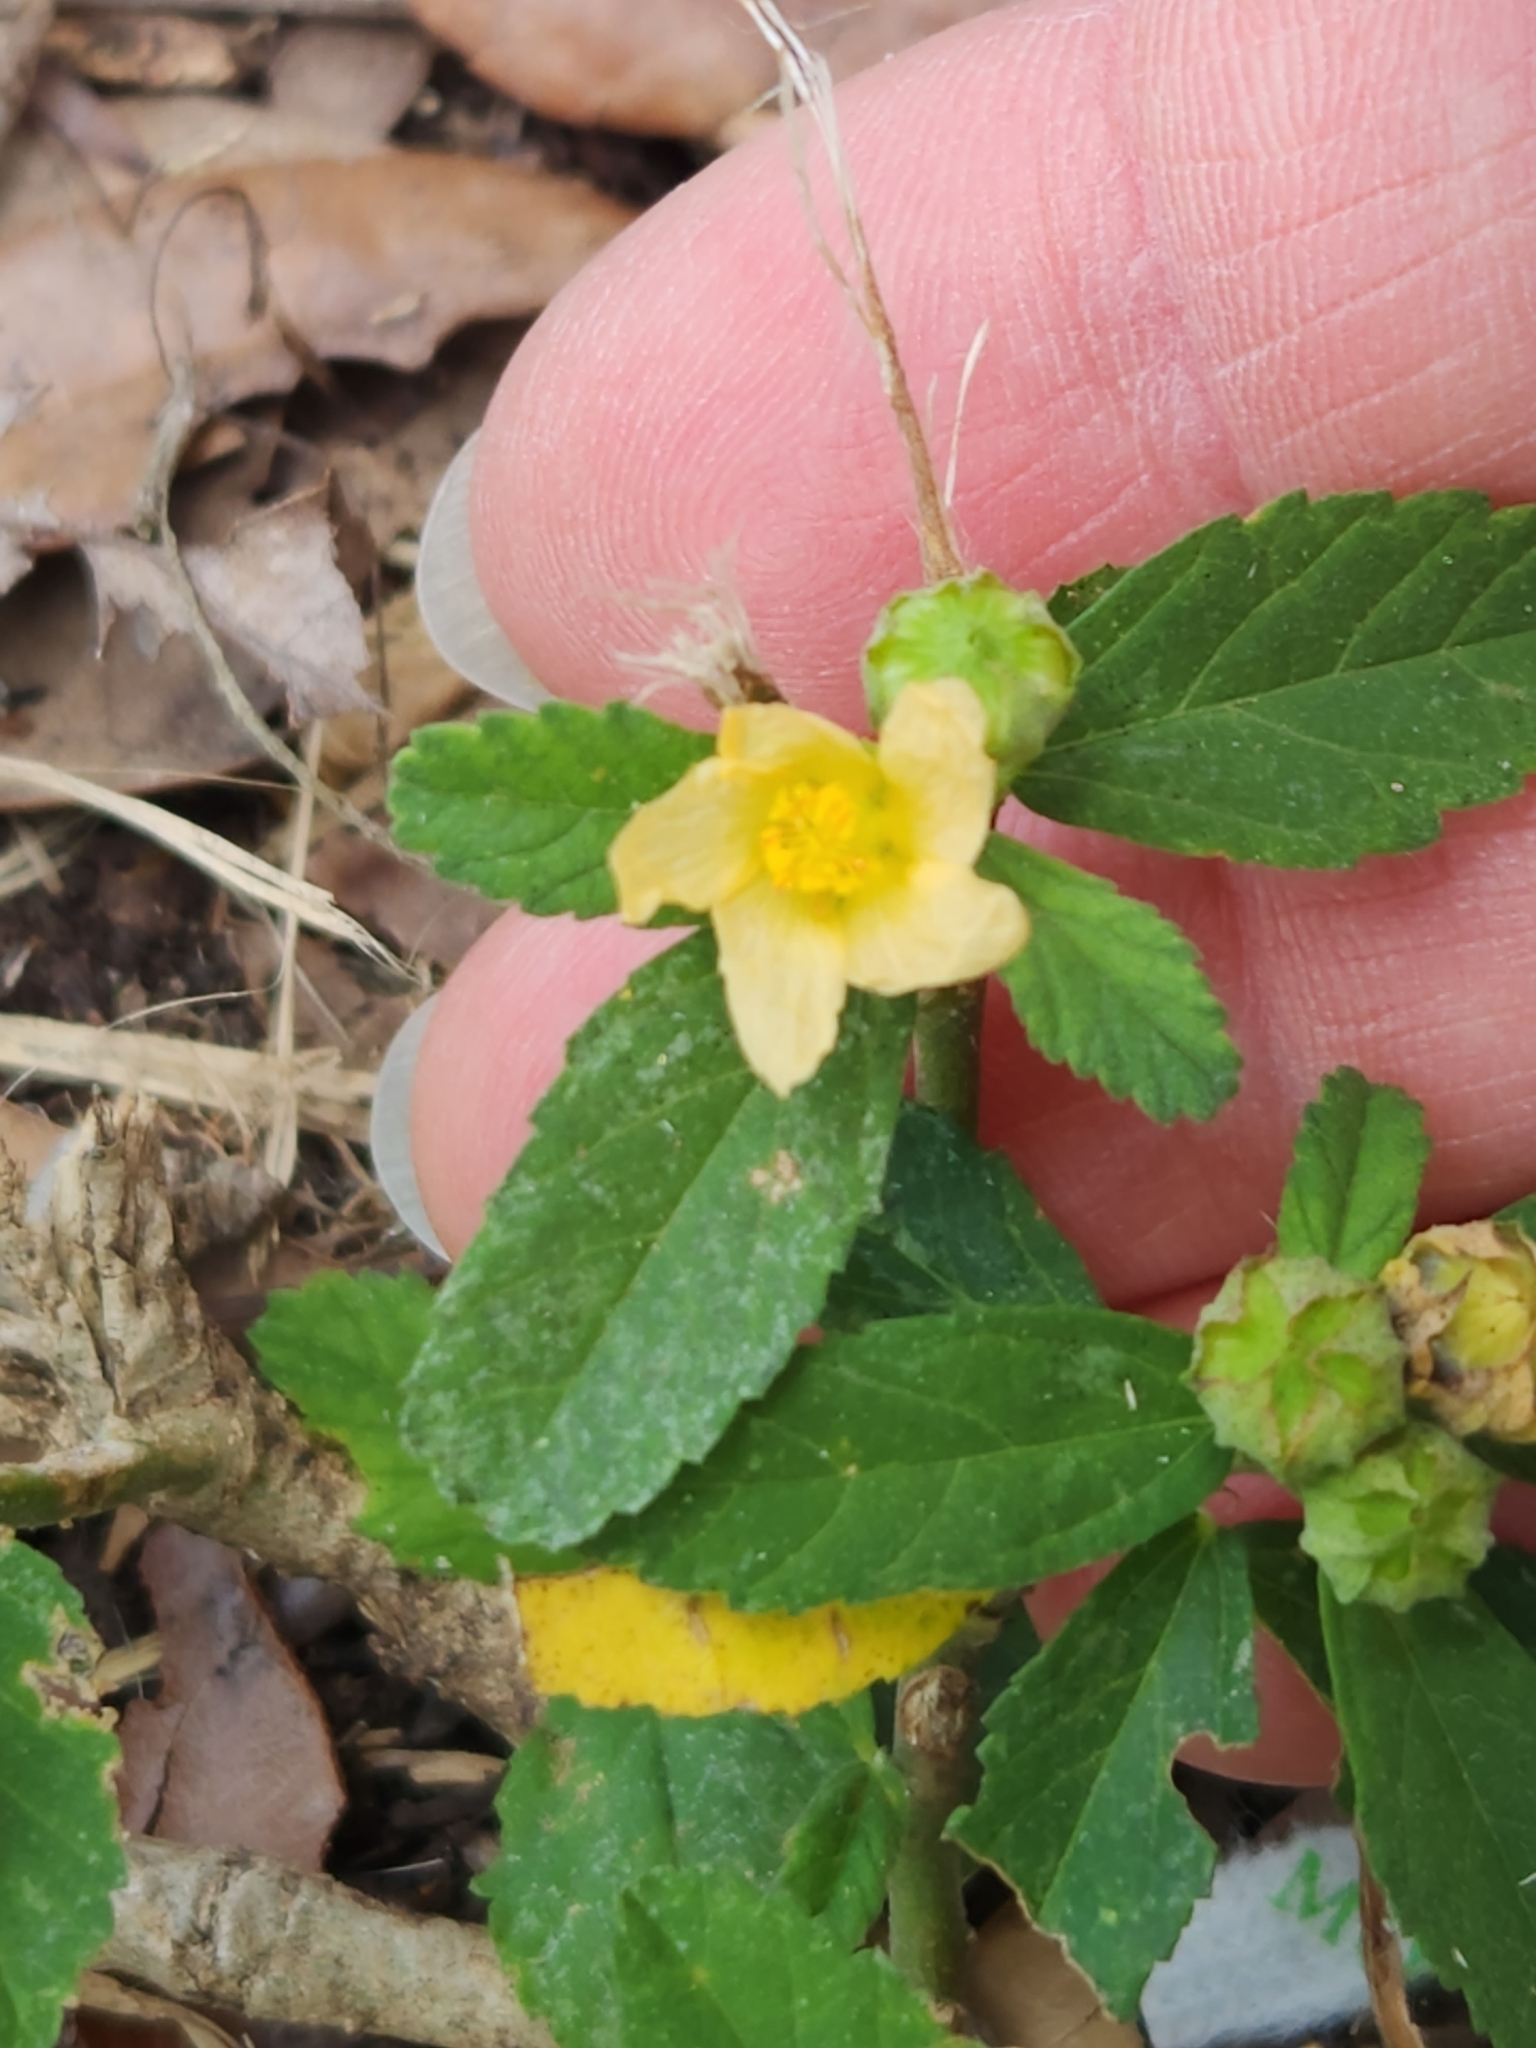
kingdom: Plantae
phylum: Tracheophyta
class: Magnoliopsida
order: Malvales
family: Malvaceae
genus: Sida
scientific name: Sida rhombifolia
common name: Queensland-hemp
